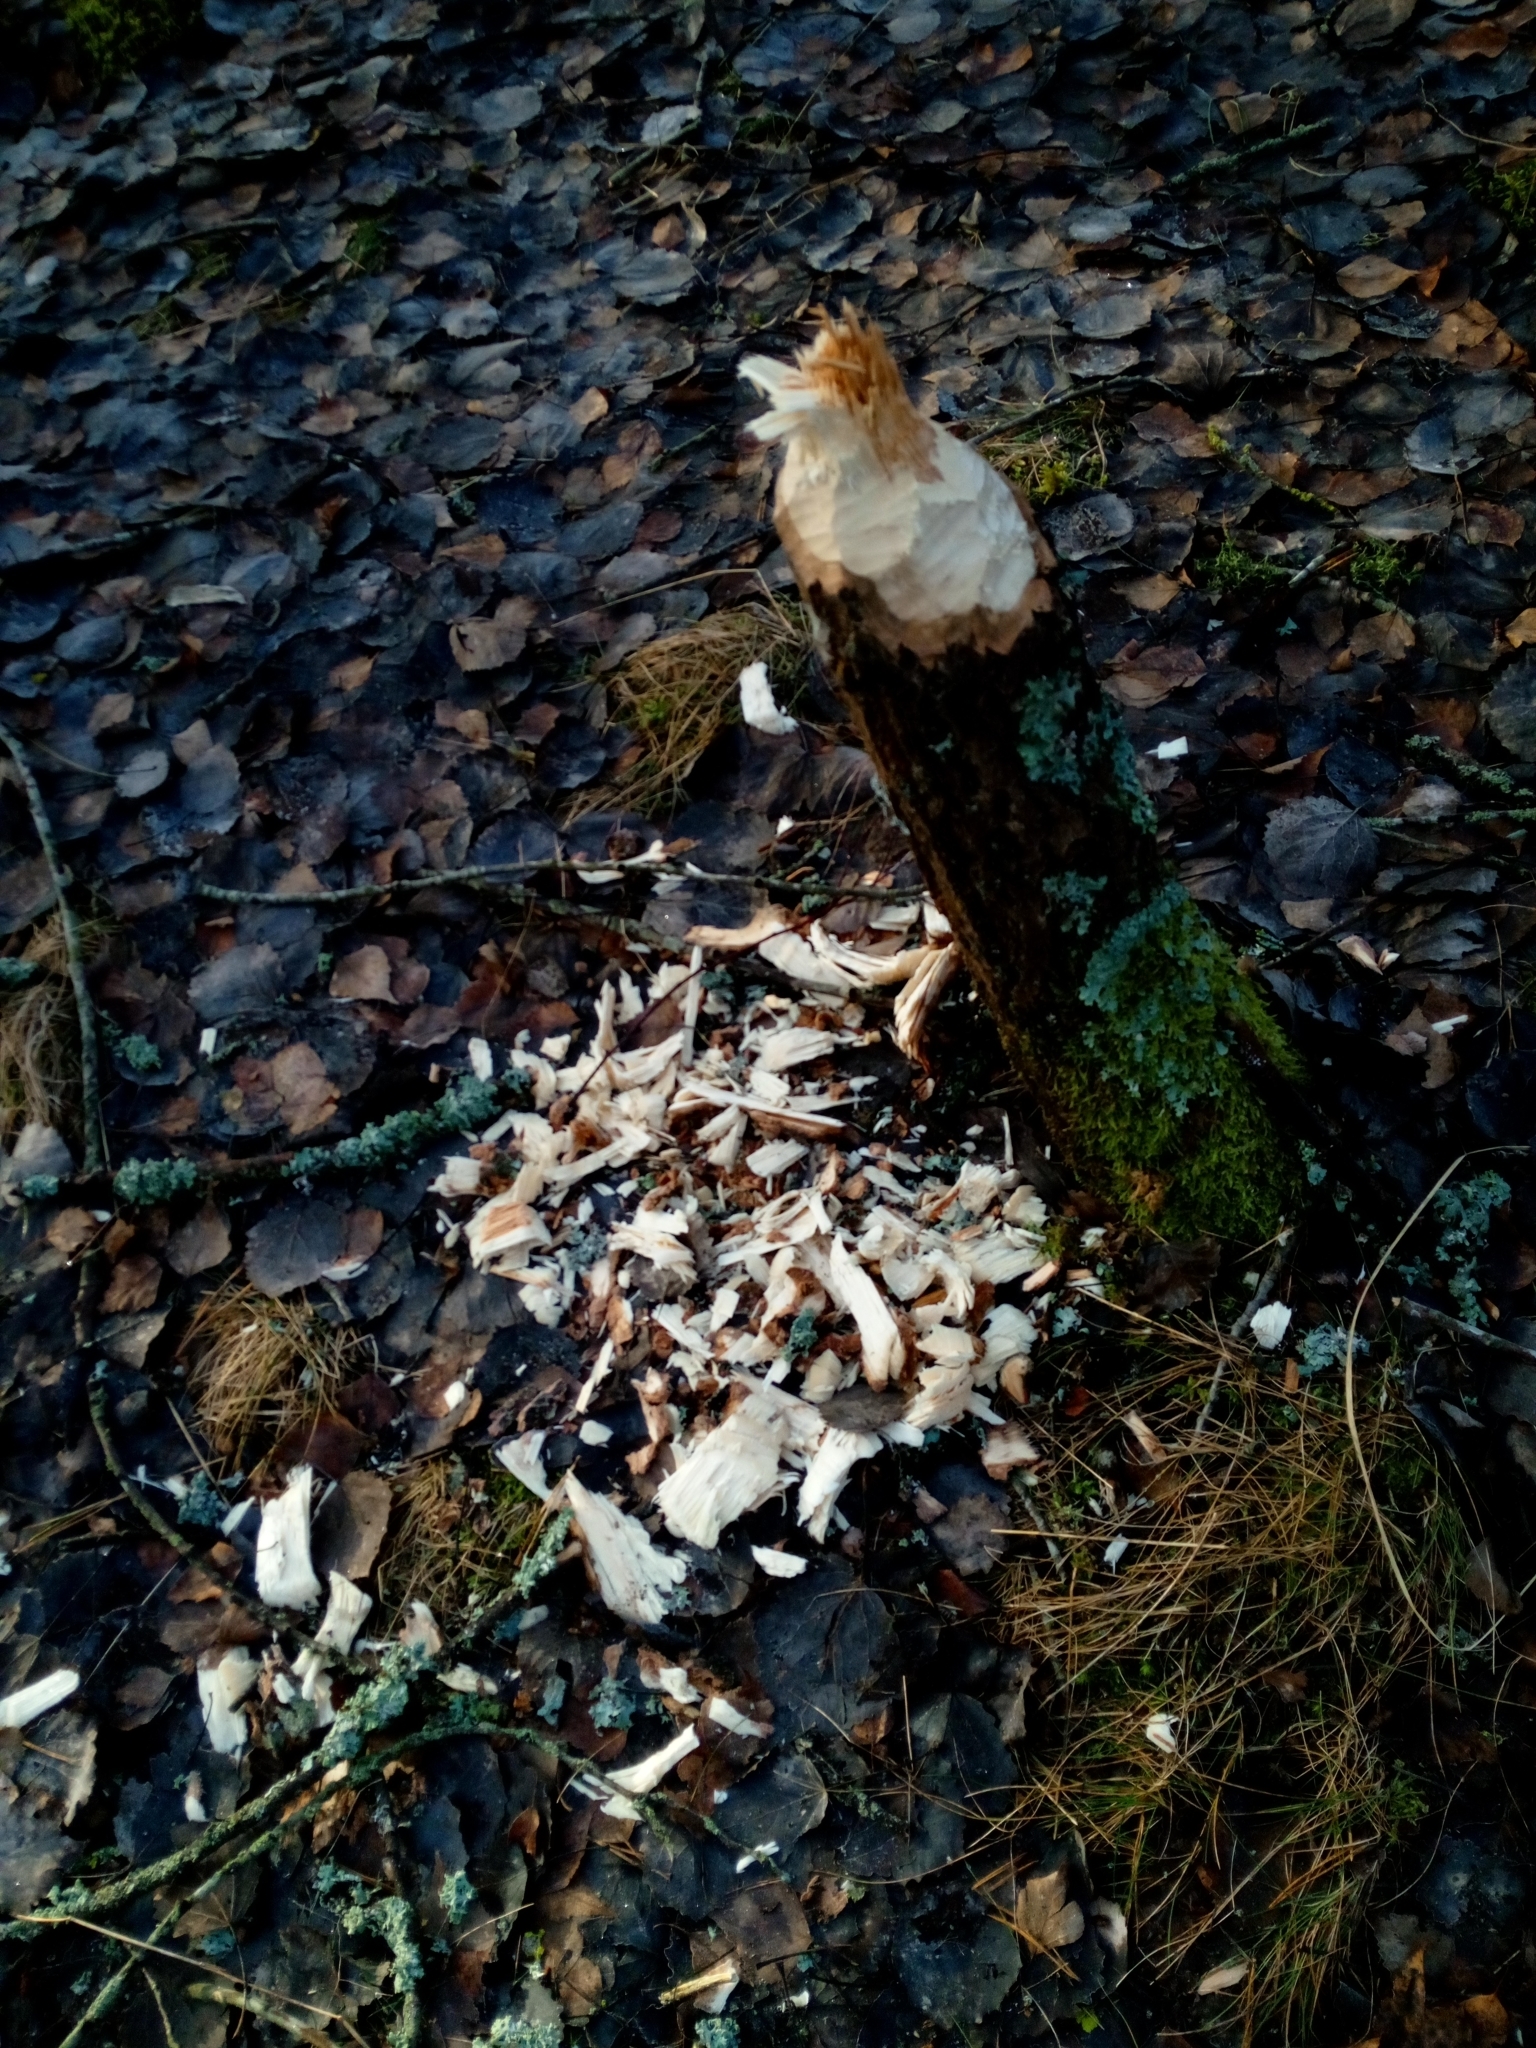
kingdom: Animalia
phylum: Chordata
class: Mammalia
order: Rodentia
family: Castoridae
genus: Castor
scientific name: Castor fiber
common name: Eurasian beaver
